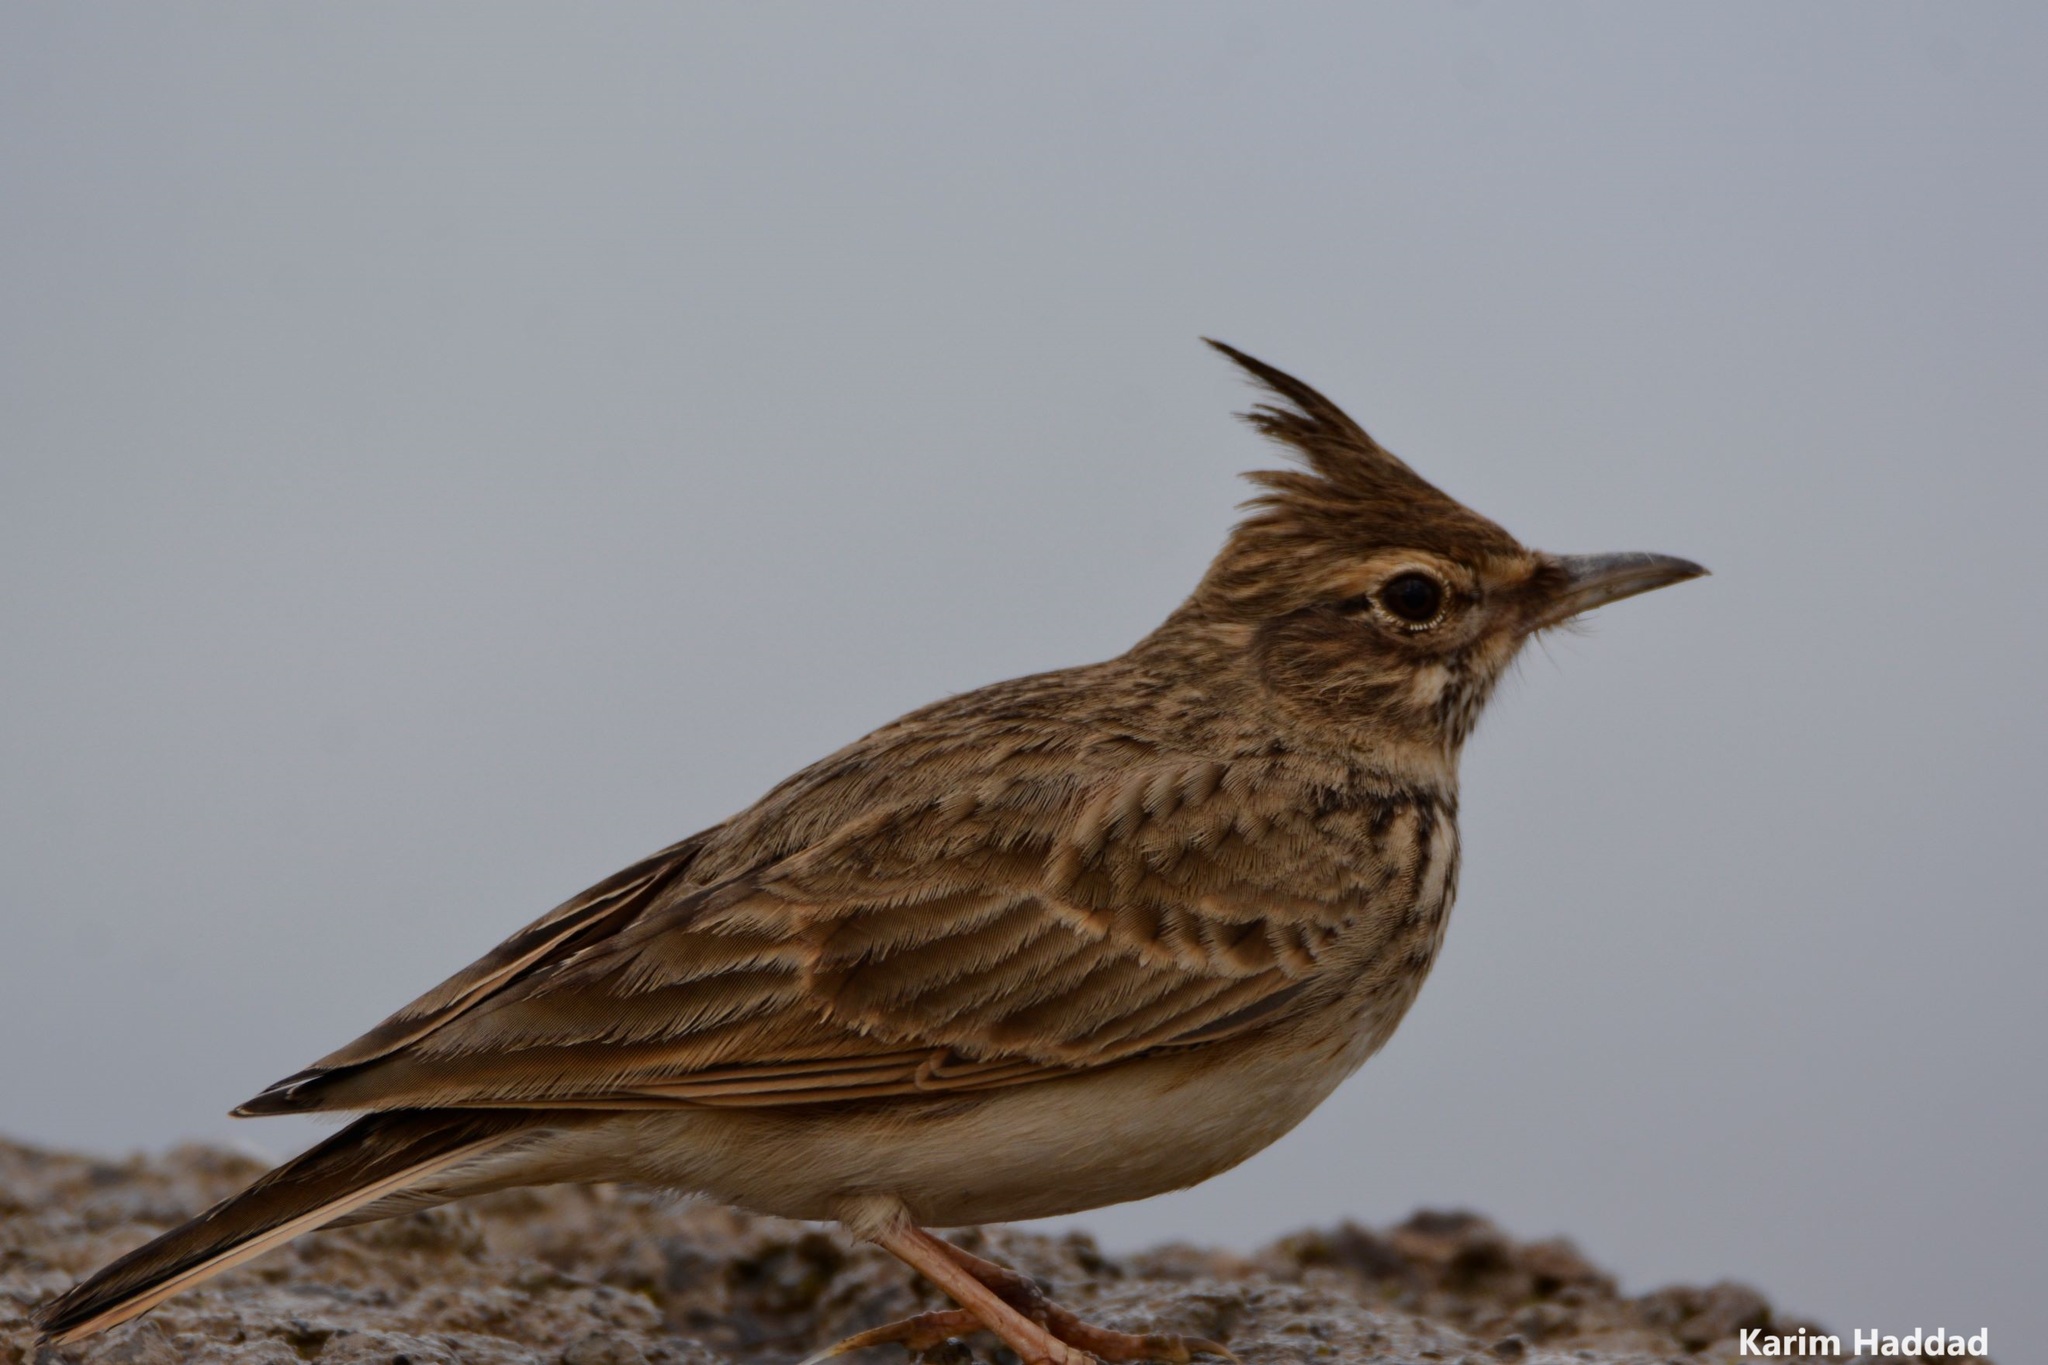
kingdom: Animalia
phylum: Chordata
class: Aves
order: Passeriformes
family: Alaudidae
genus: Galerida
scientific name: Galerida cristata
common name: Crested lark
